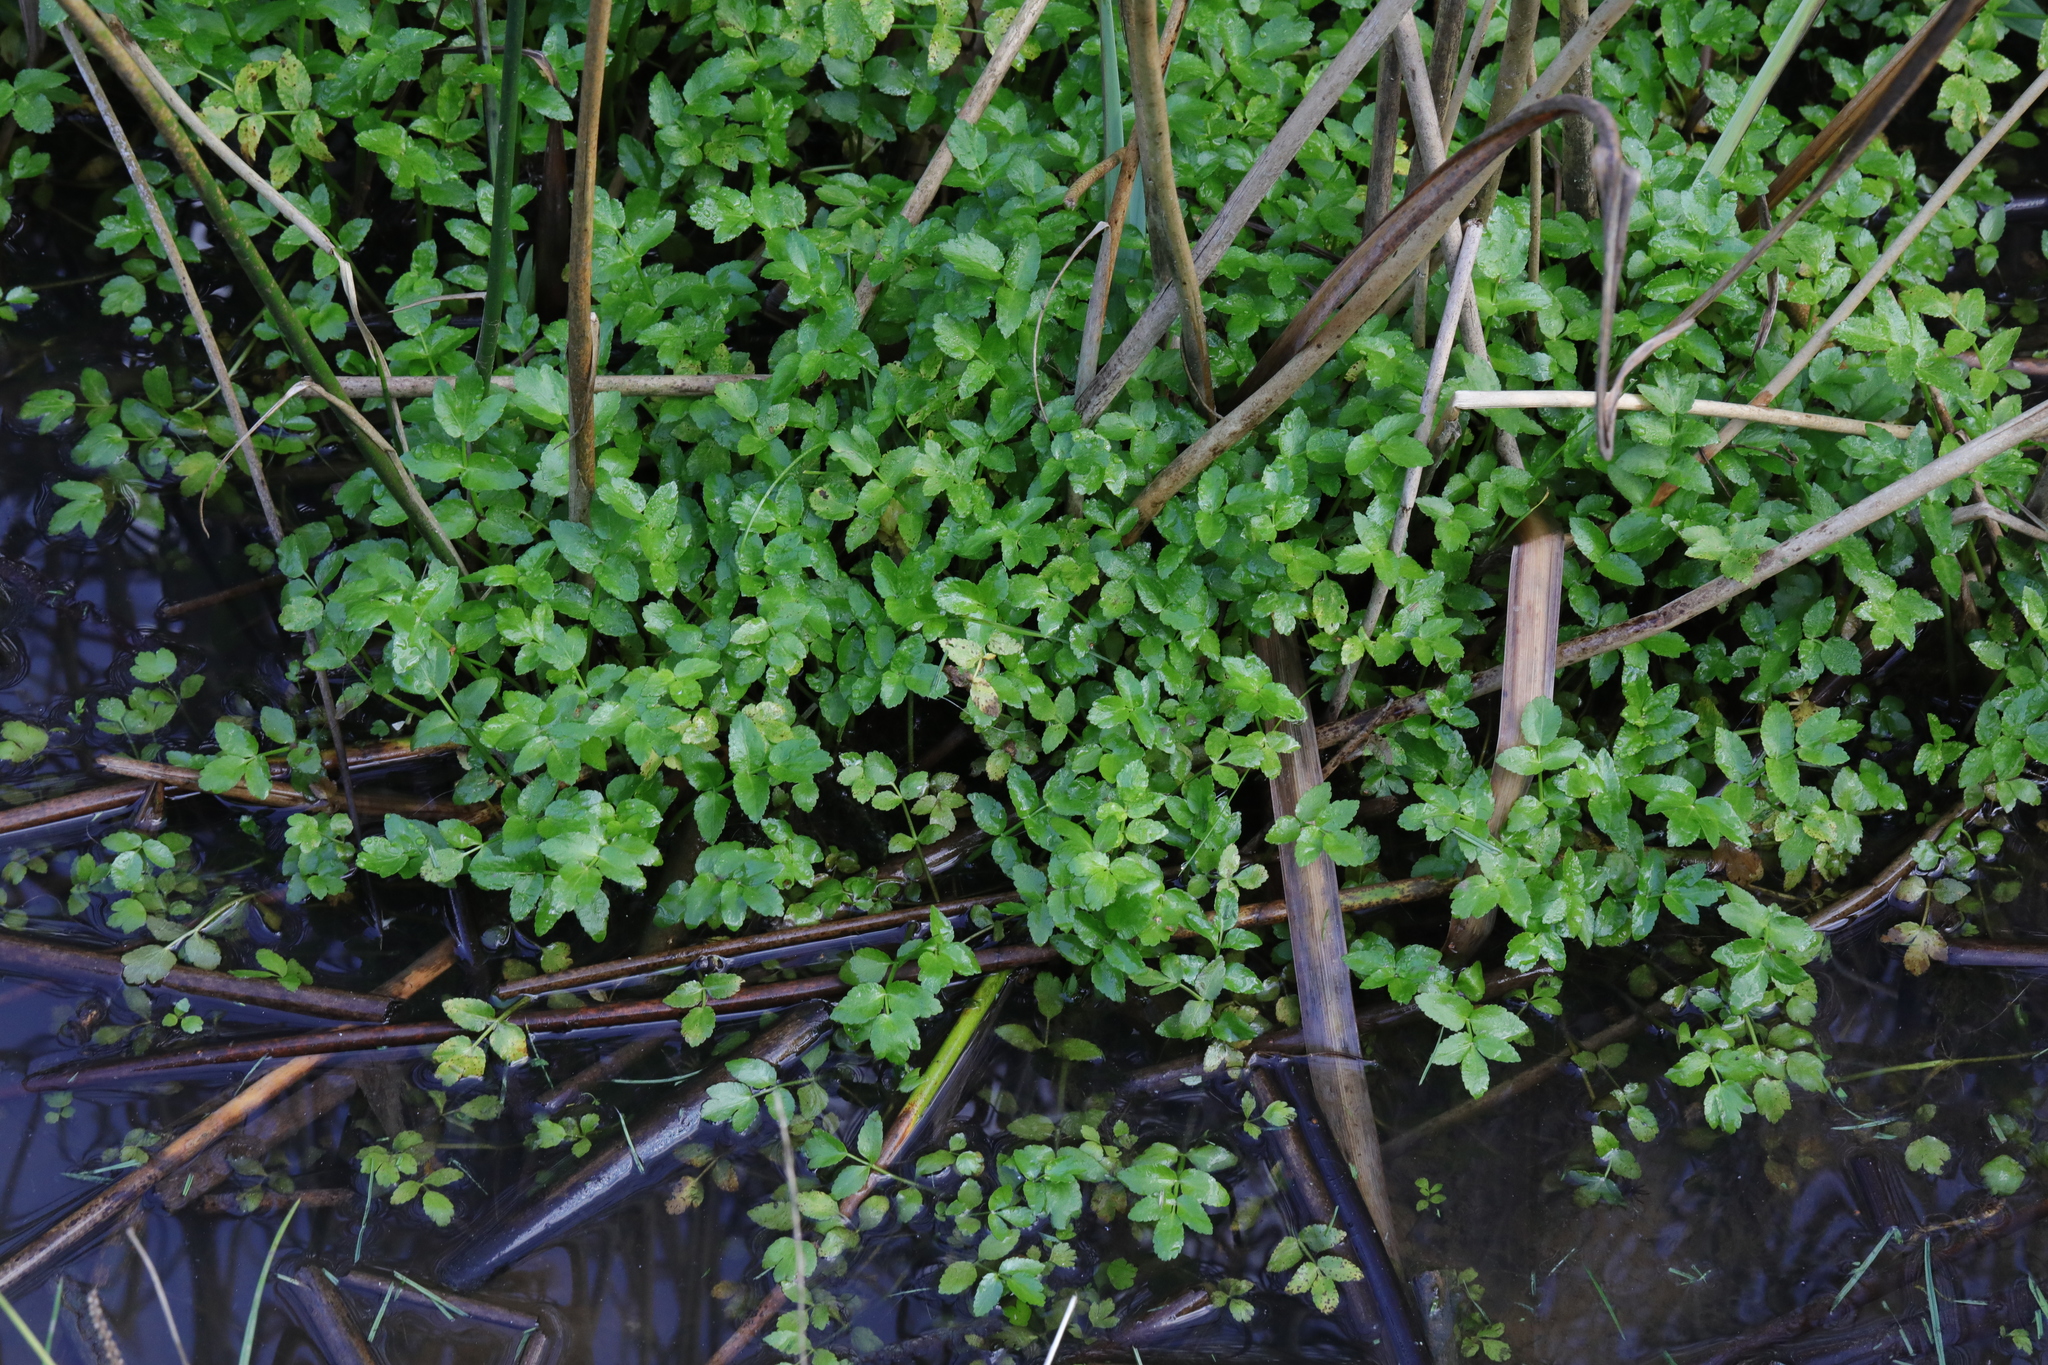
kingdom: Plantae
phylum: Tracheophyta
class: Magnoliopsida
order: Apiales
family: Apiaceae
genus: Helosciadium
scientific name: Helosciadium nodiflorum
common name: Fool's-watercress
